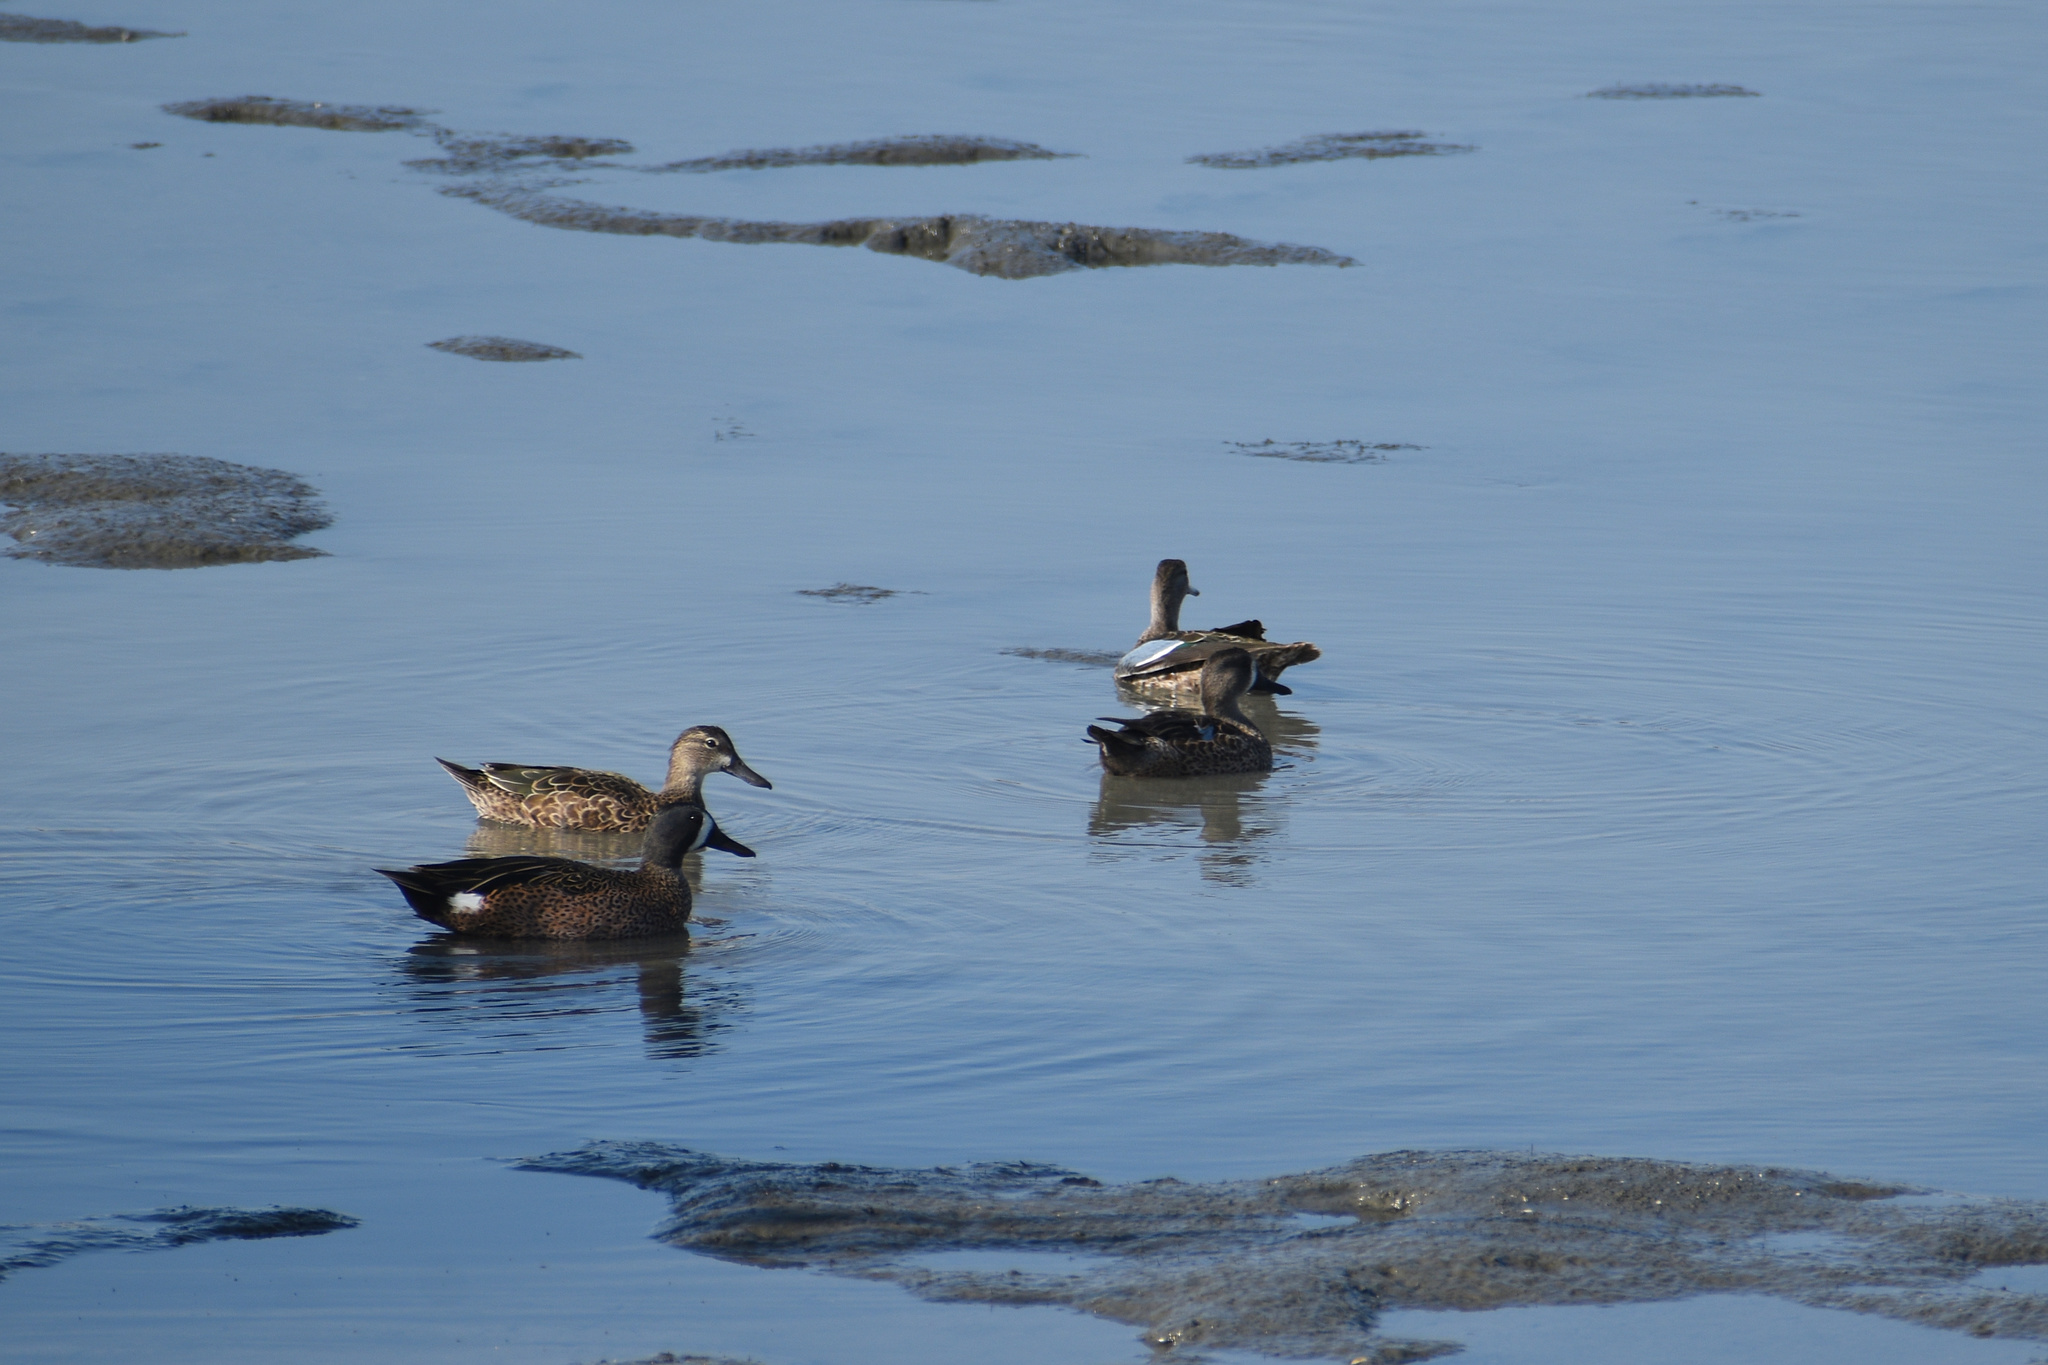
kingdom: Animalia
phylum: Chordata
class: Aves
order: Anseriformes
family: Anatidae
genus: Spatula
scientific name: Spatula discors
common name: Blue-winged teal
